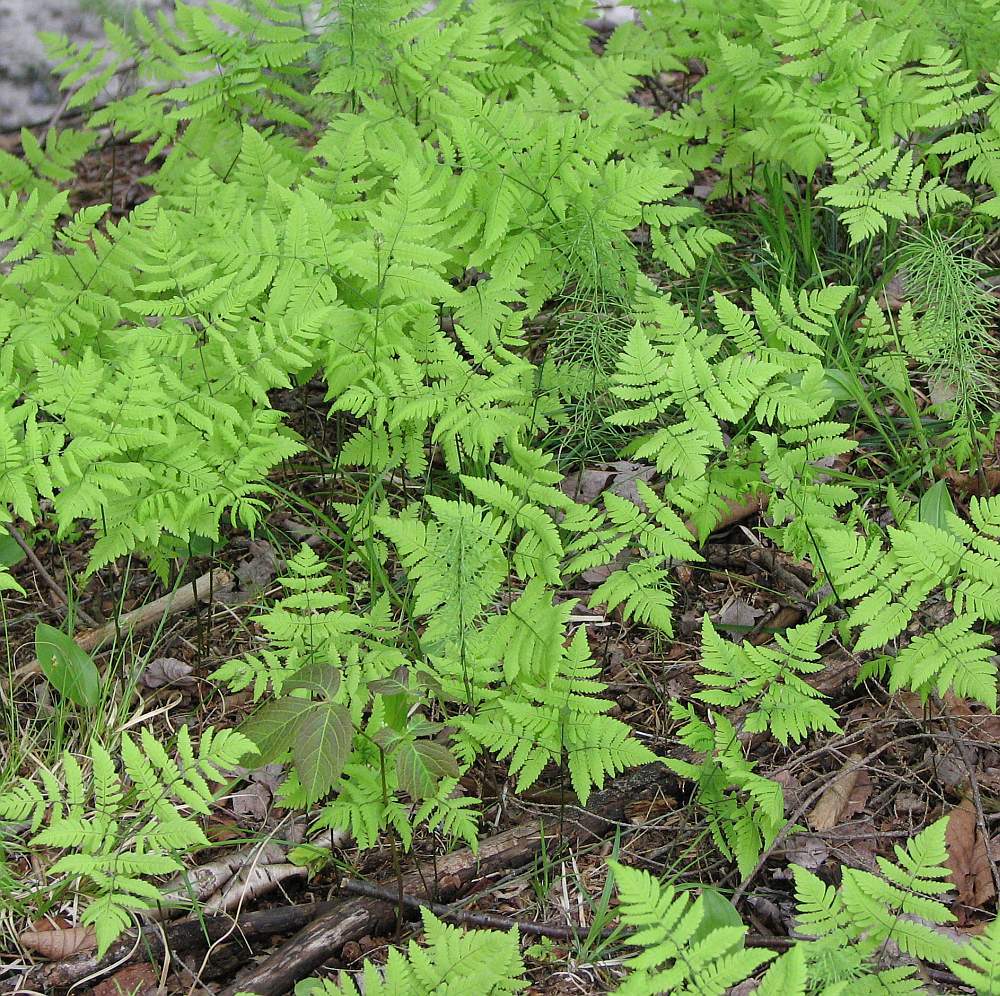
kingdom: Plantae
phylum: Tracheophyta
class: Polypodiopsida
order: Polypodiales
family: Cystopteridaceae
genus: Gymnocarpium
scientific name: Gymnocarpium dryopteris
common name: Oak fern
